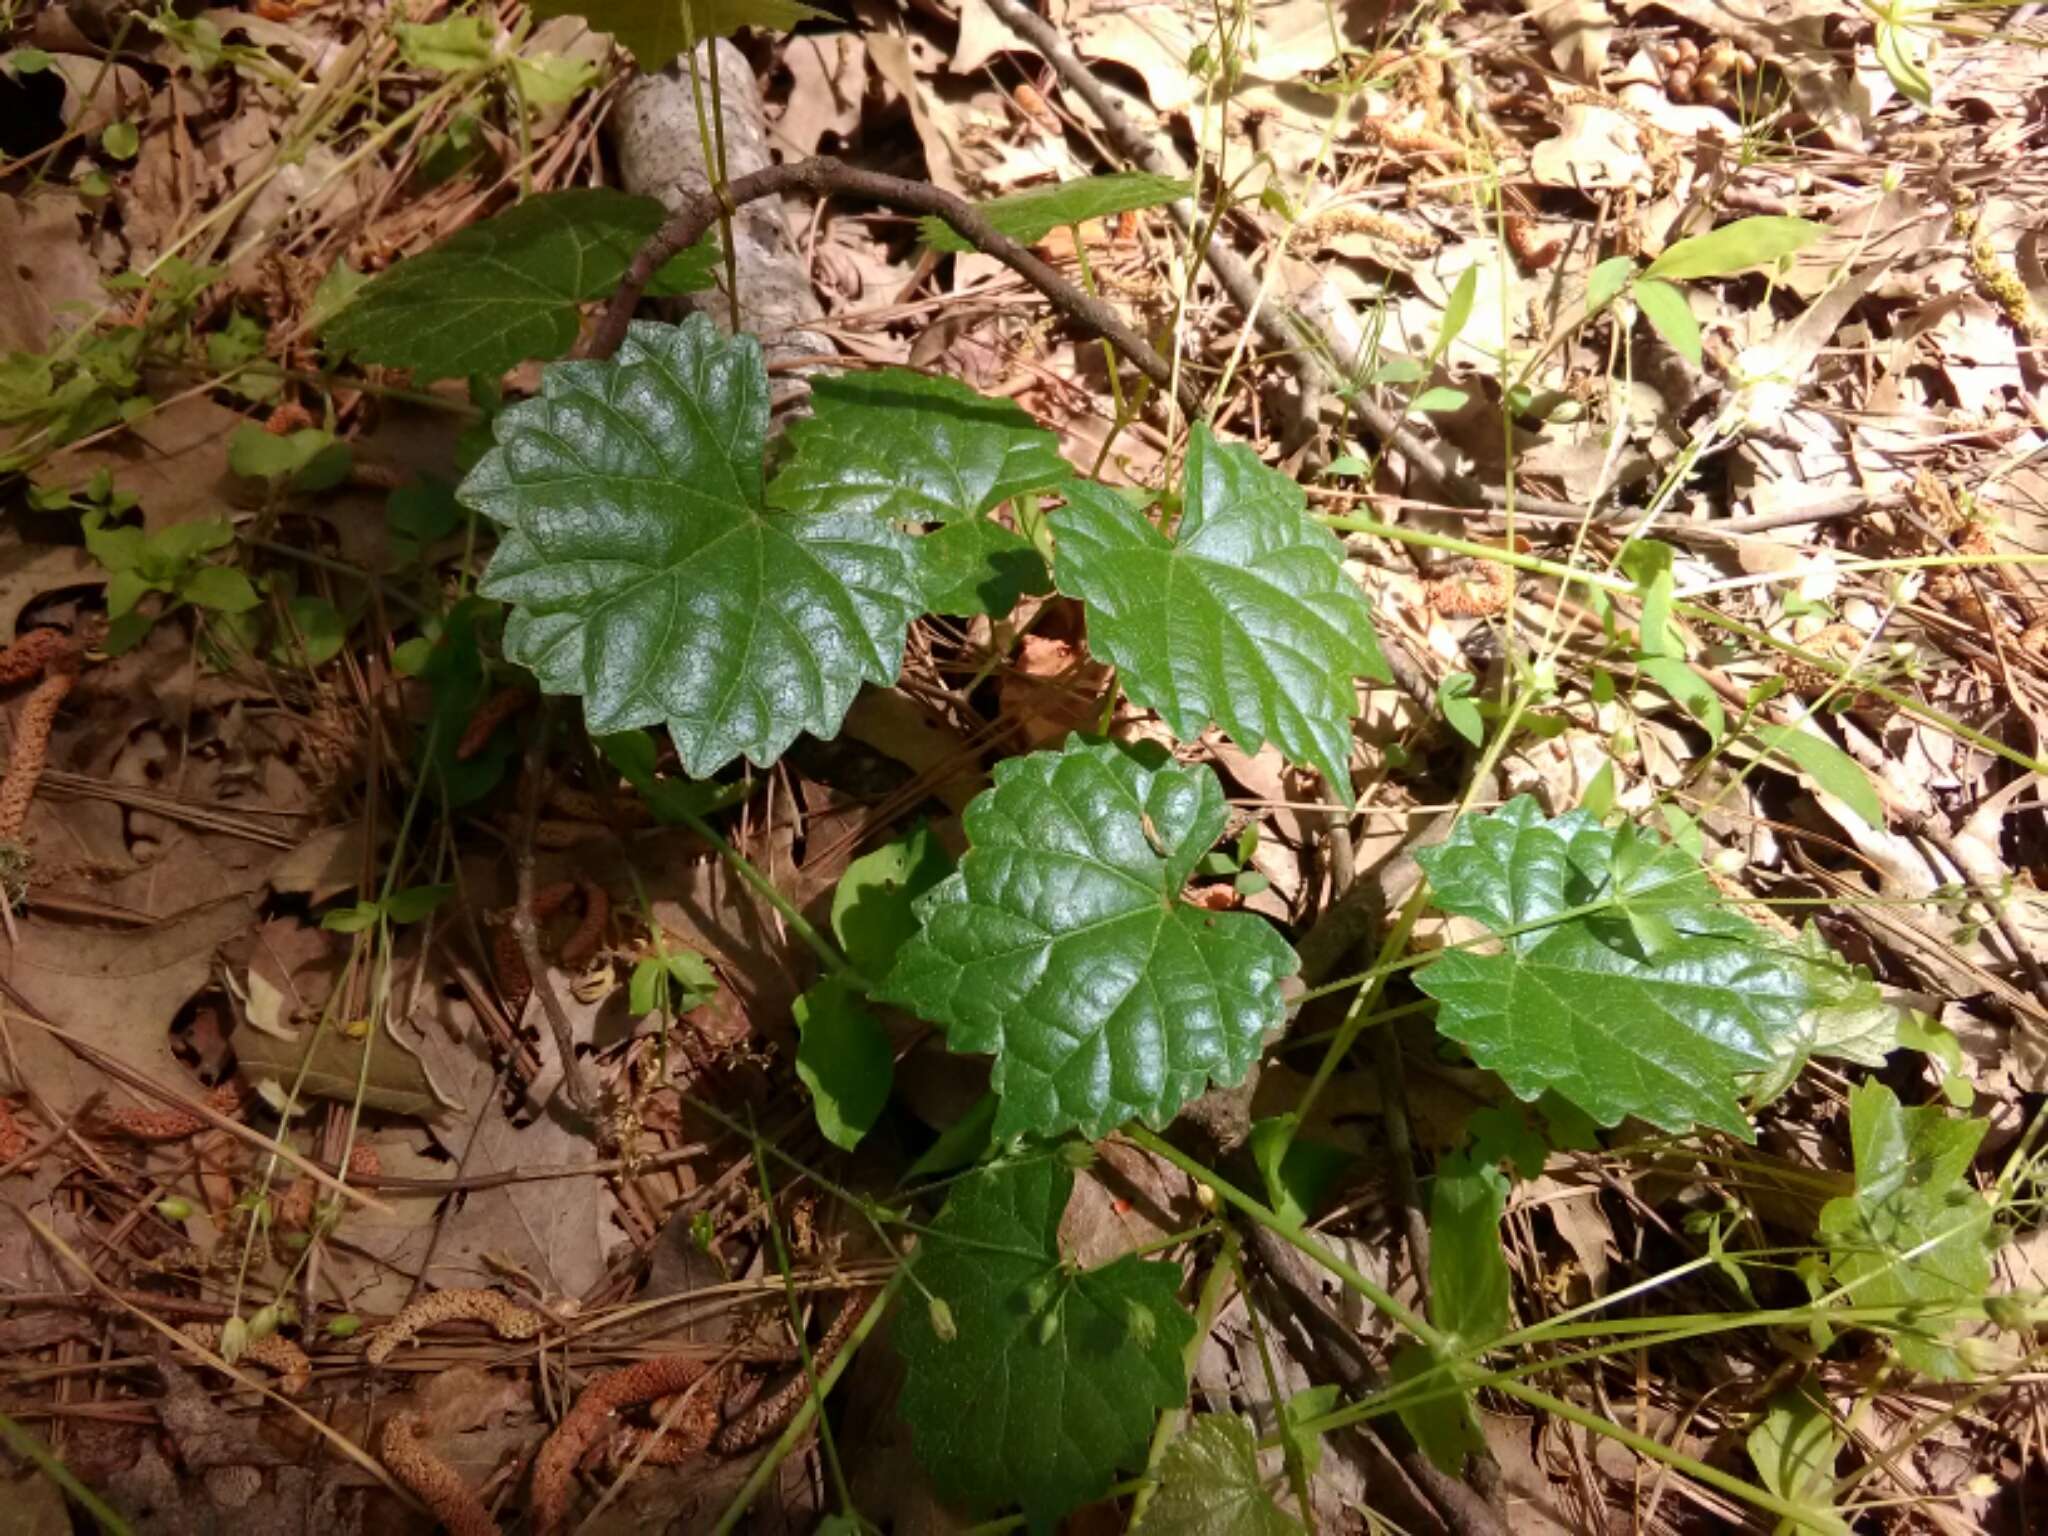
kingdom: Plantae
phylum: Tracheophyta
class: Magnoliopsida
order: Vitales
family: Vitaceae
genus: Vitis
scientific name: Vitis rotundifolia
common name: Muscadine grape
